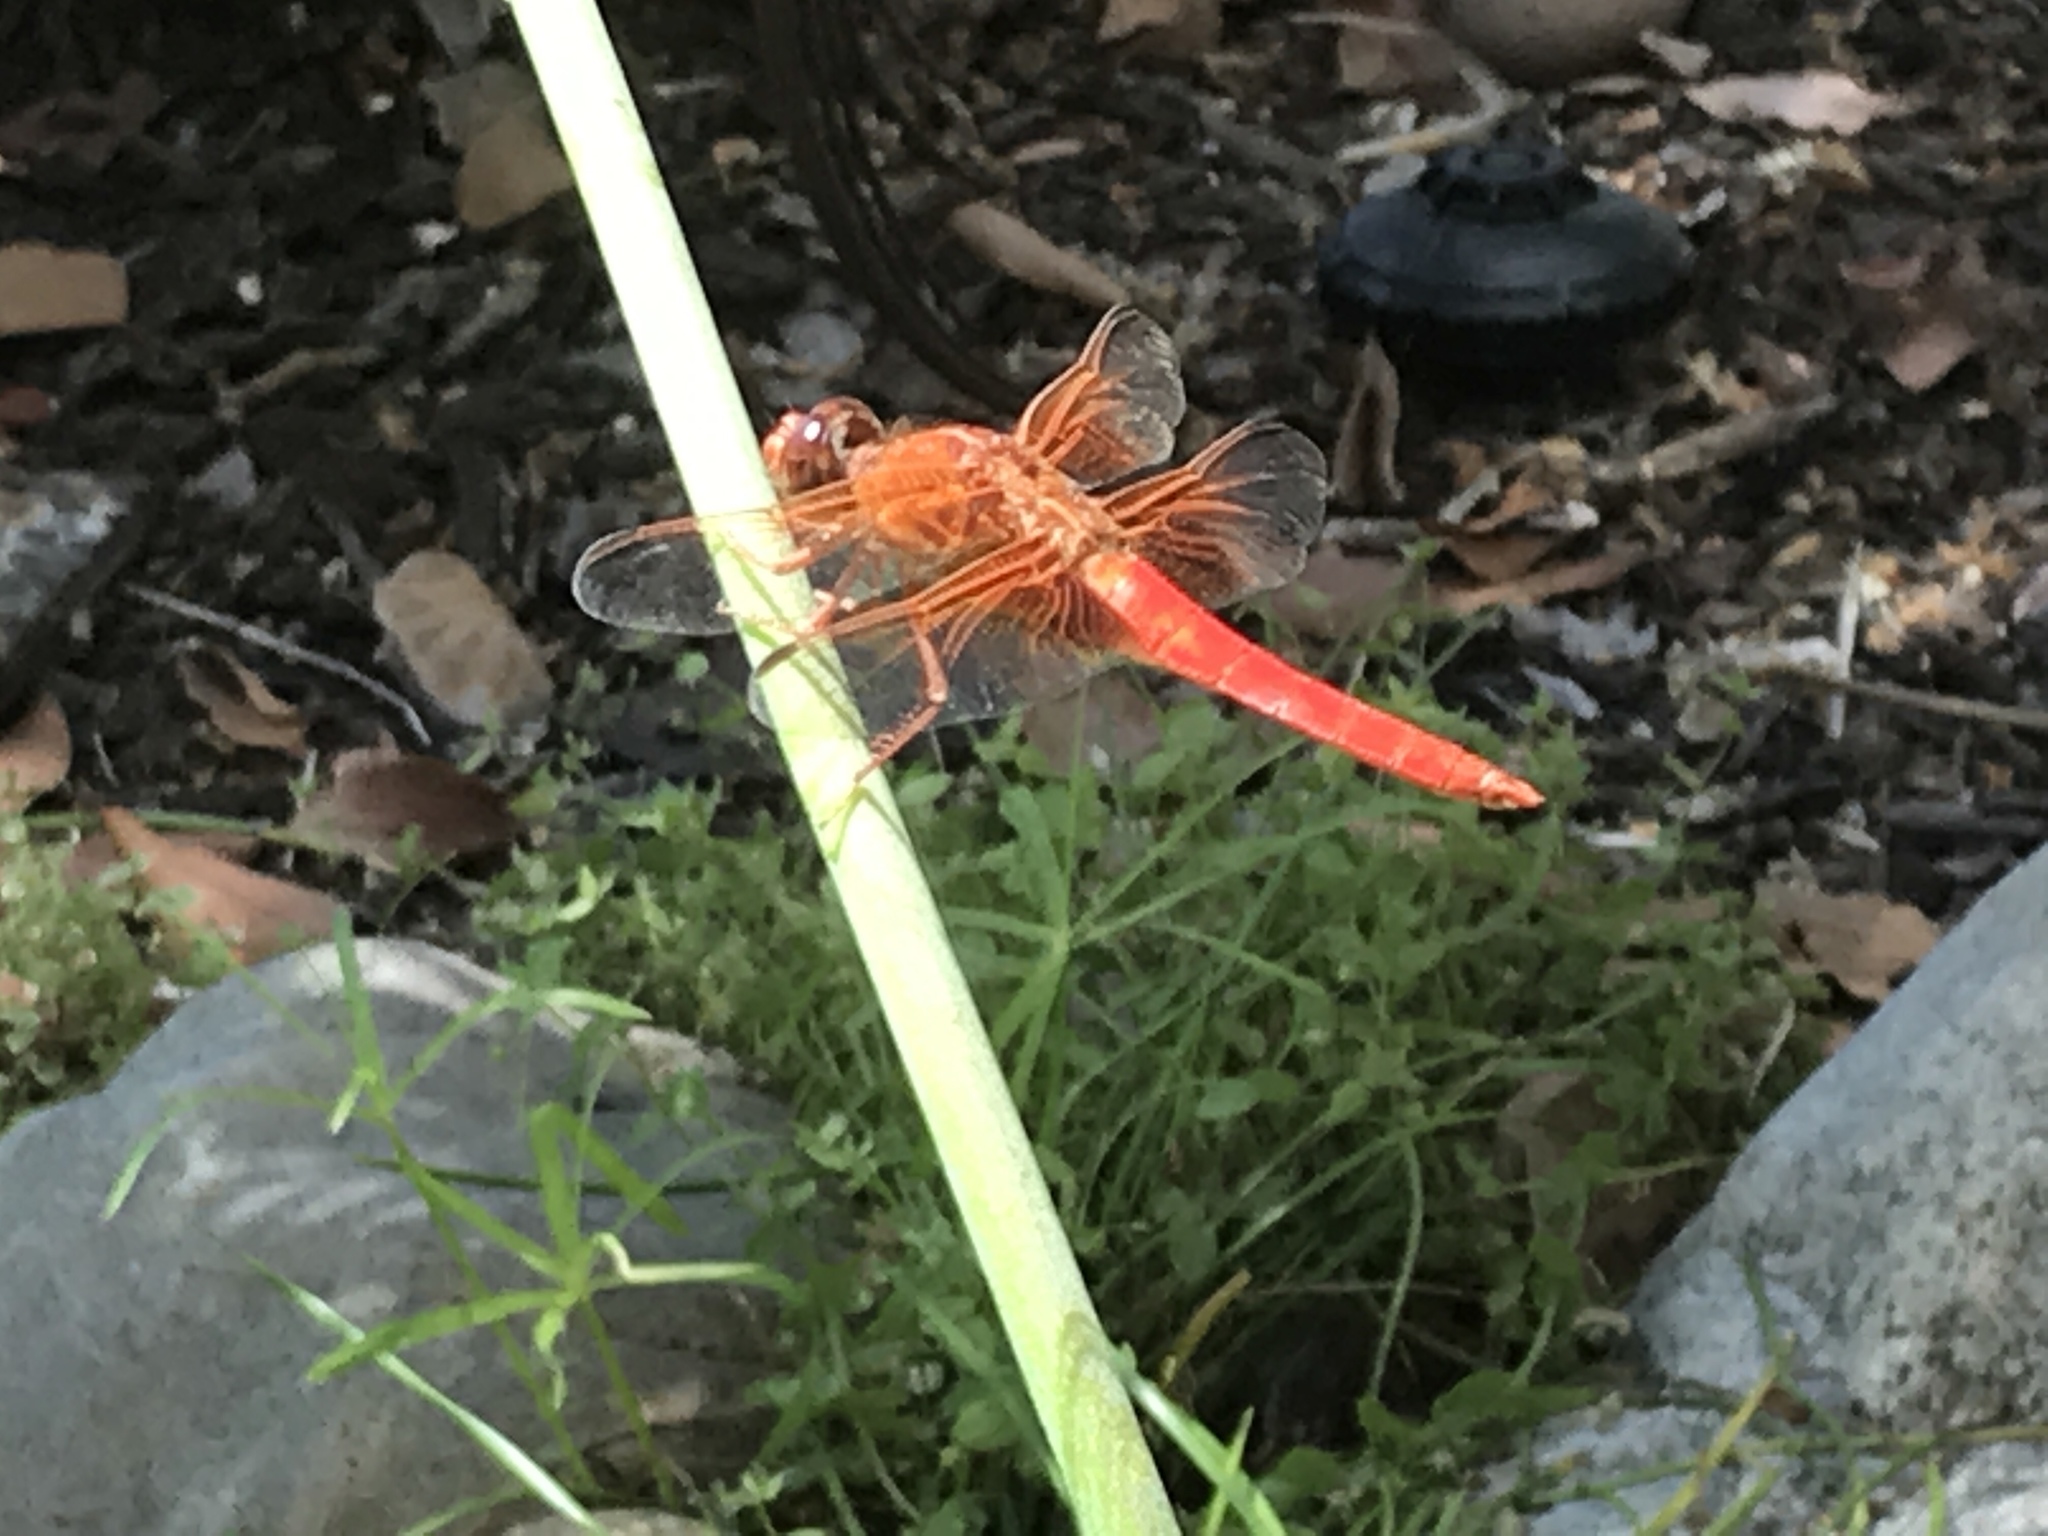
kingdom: Animalia
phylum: Arthropoda
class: Insecta
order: Odonata
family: Libellulidae
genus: Libellula
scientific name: Libellula croceipennis
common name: Neon skimmer
